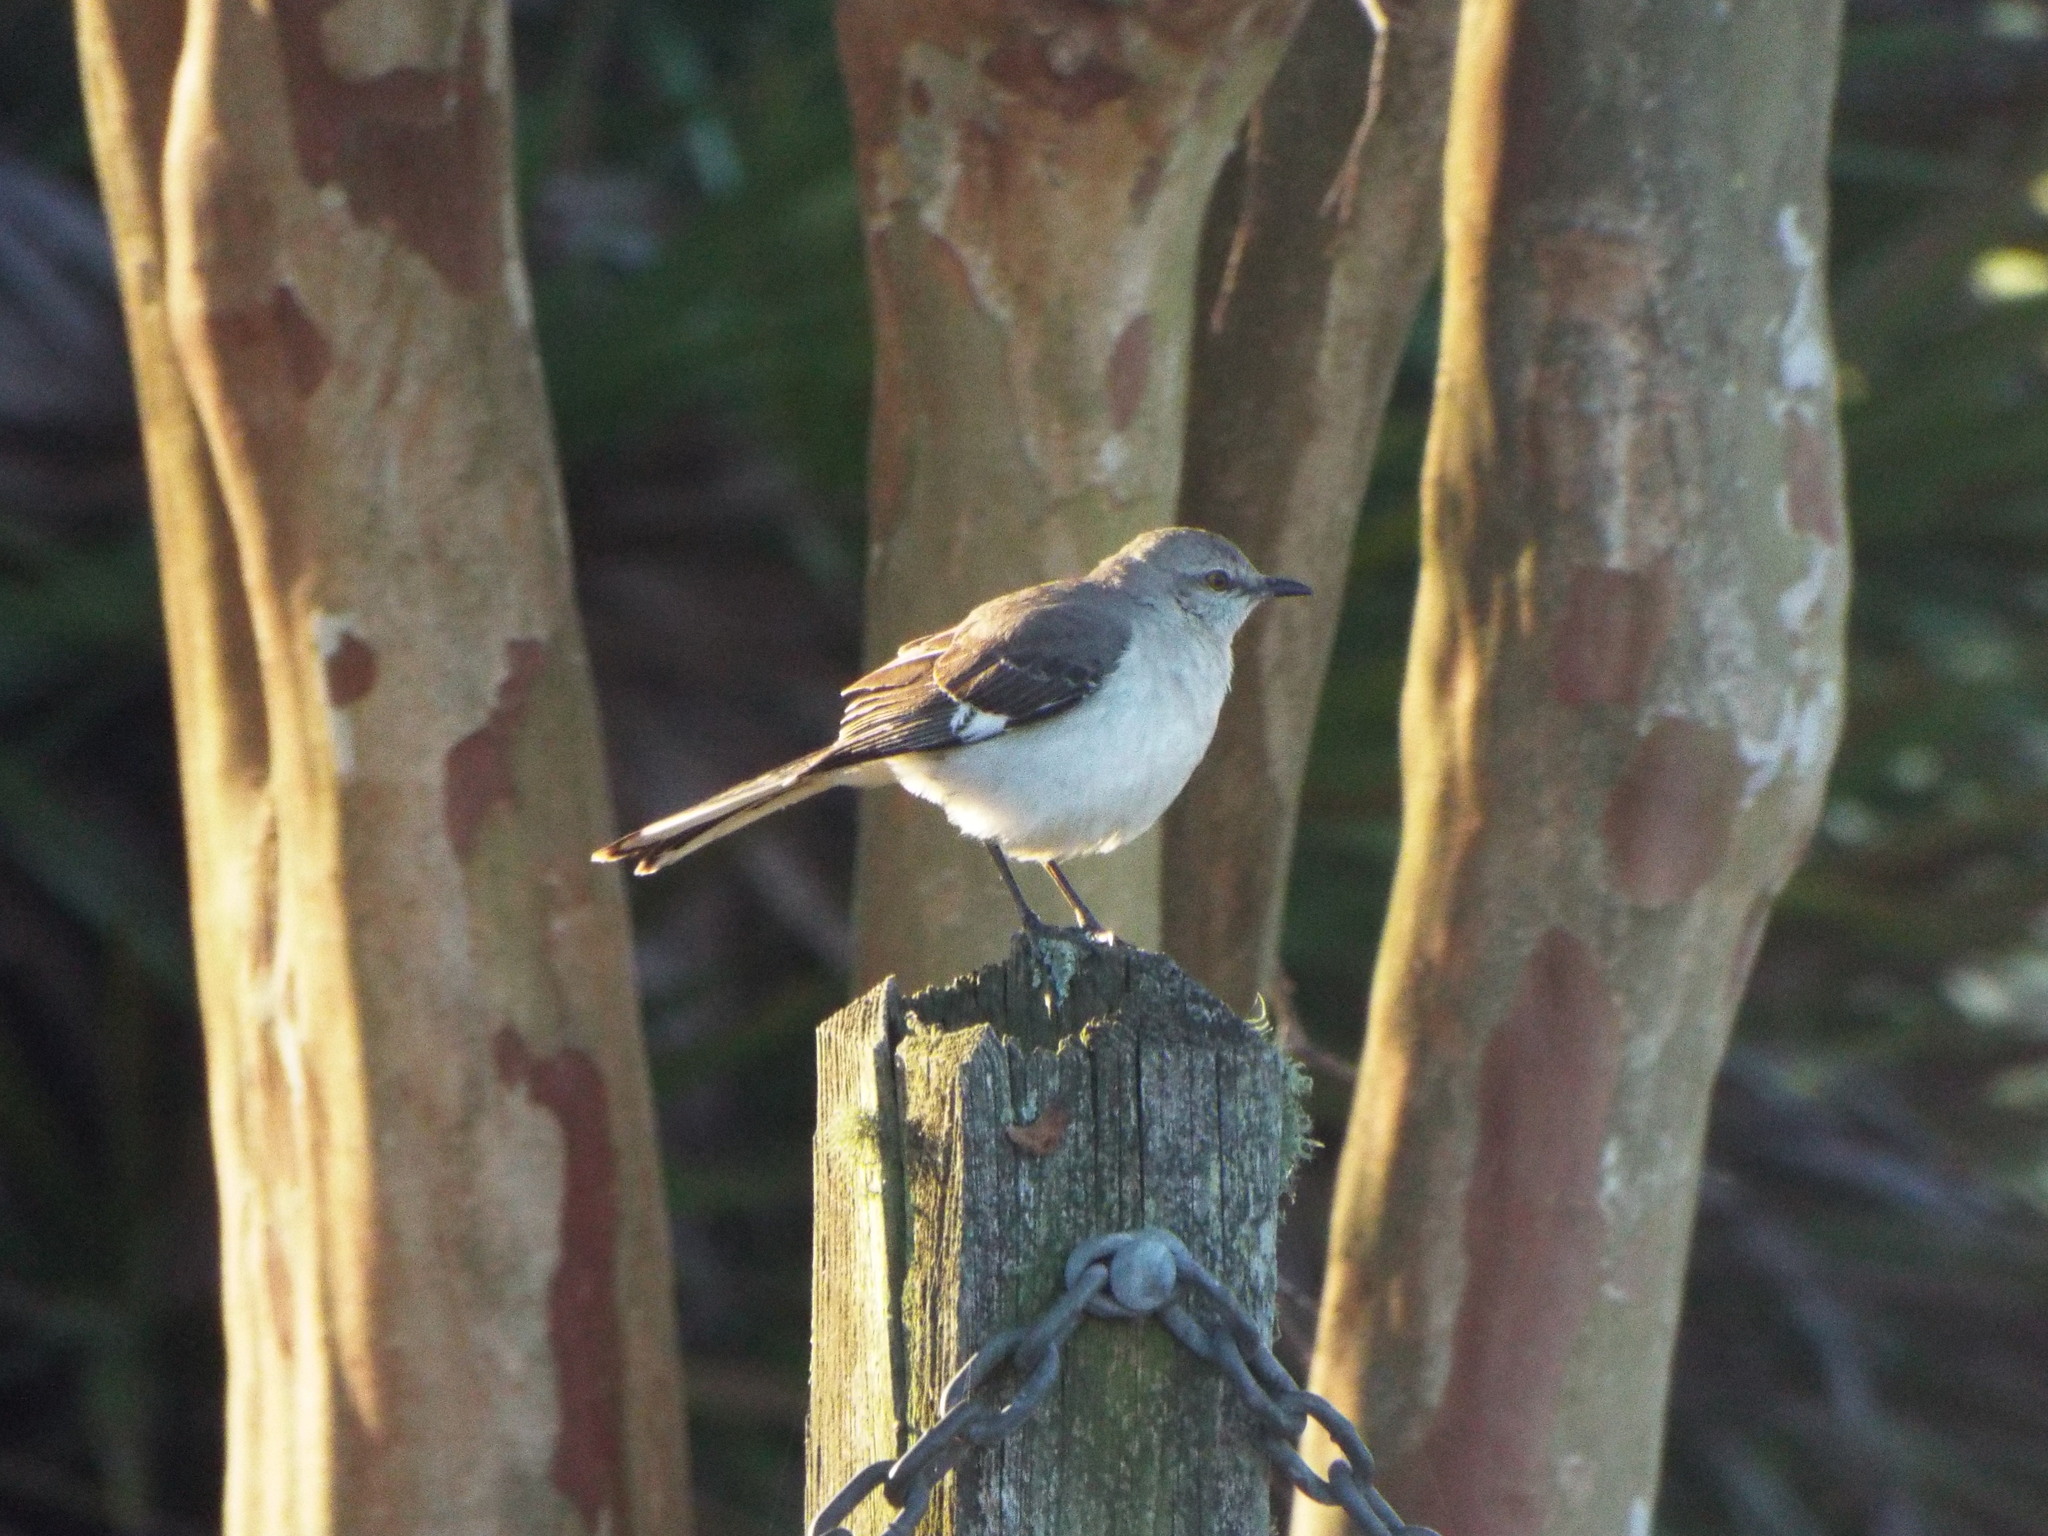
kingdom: Animalia
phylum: Chordata
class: Aves
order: Passeriformes
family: Mimidae
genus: Mimus
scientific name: Mimus polyglottos
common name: Northern mockingbird
